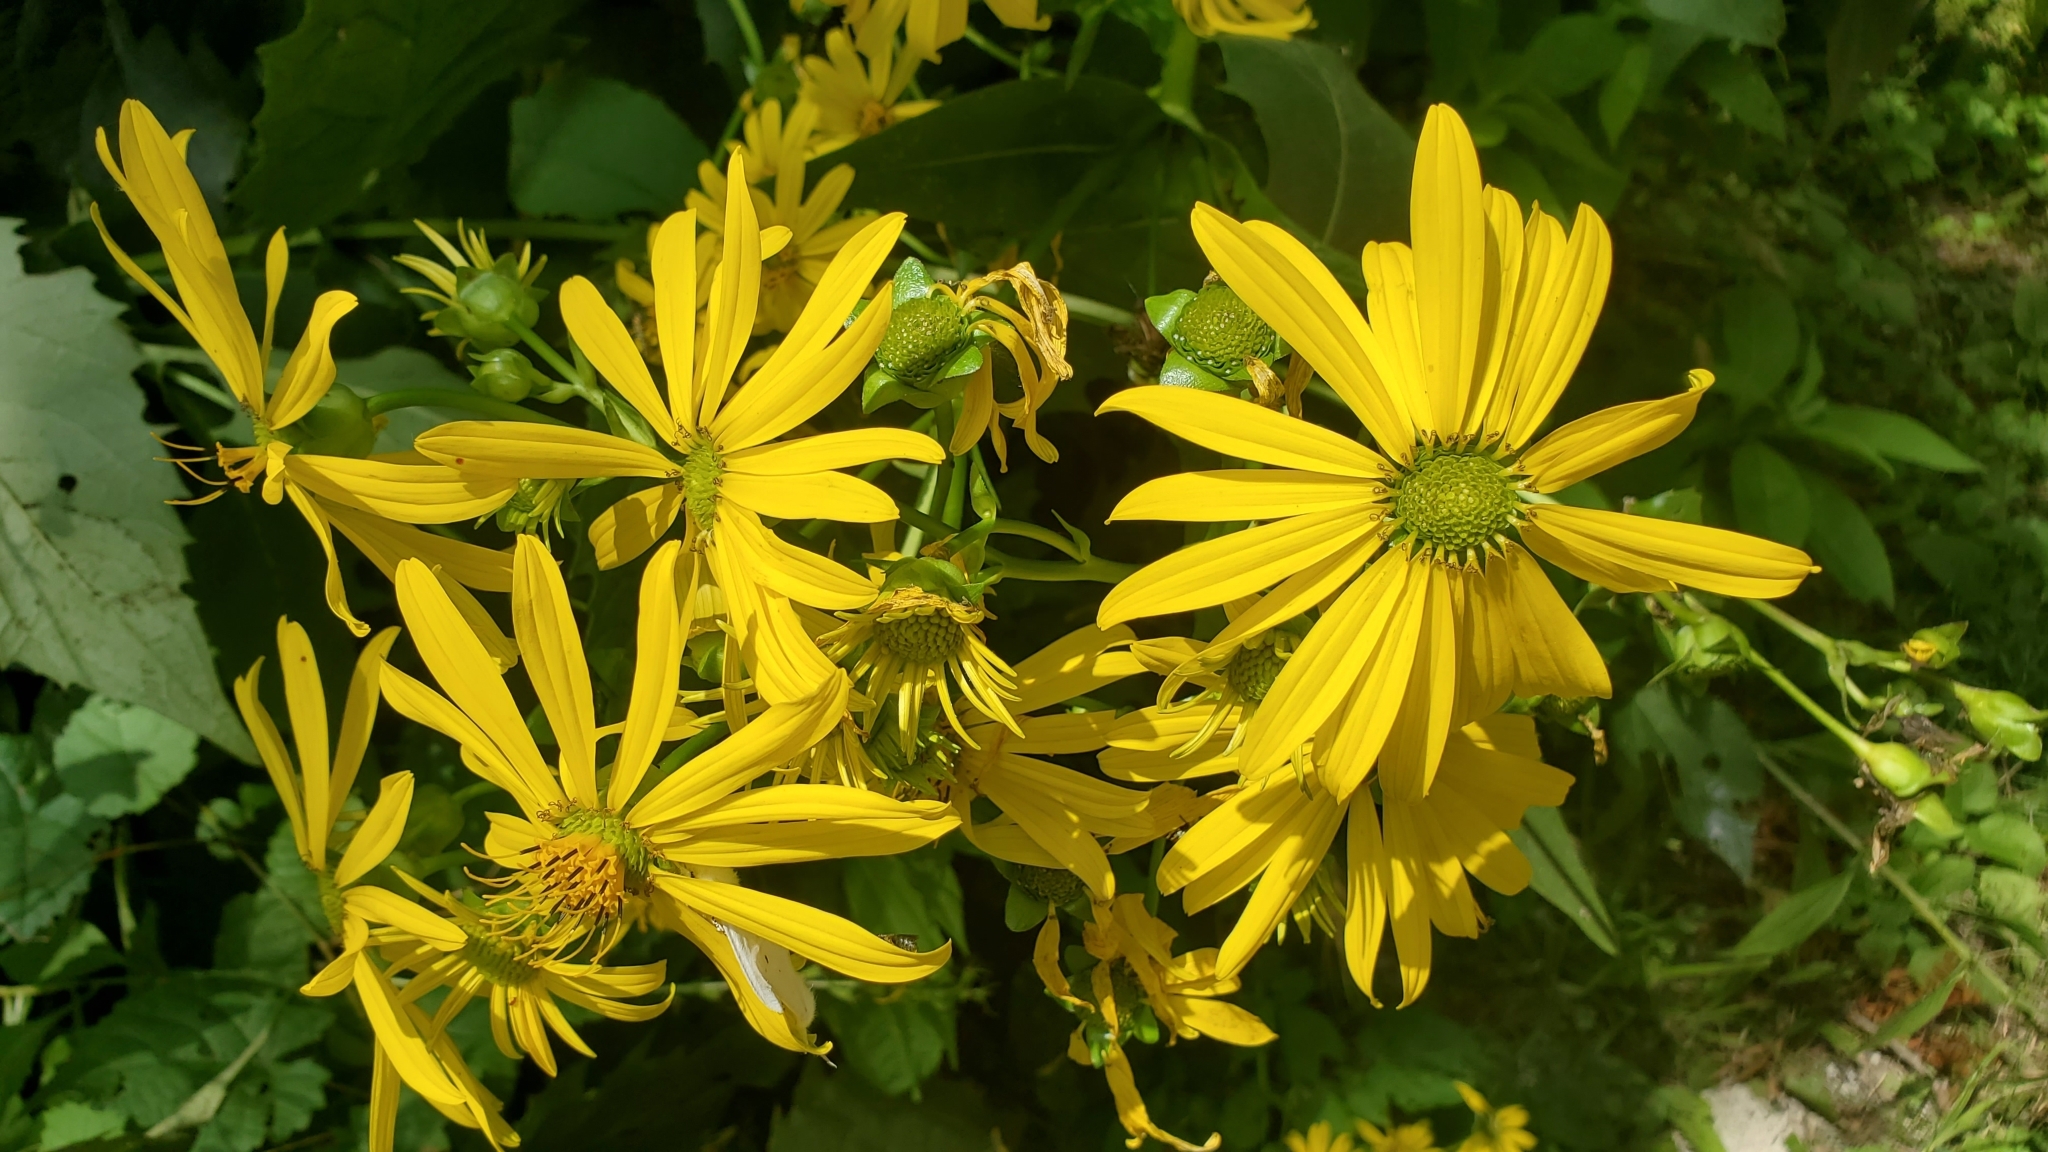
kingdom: Plantae
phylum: Tracheophyta
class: Magnoliopsida
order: Asterales
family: Asteraceae
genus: Silphium
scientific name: Silphium perfoliatum
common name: Cup-plant
